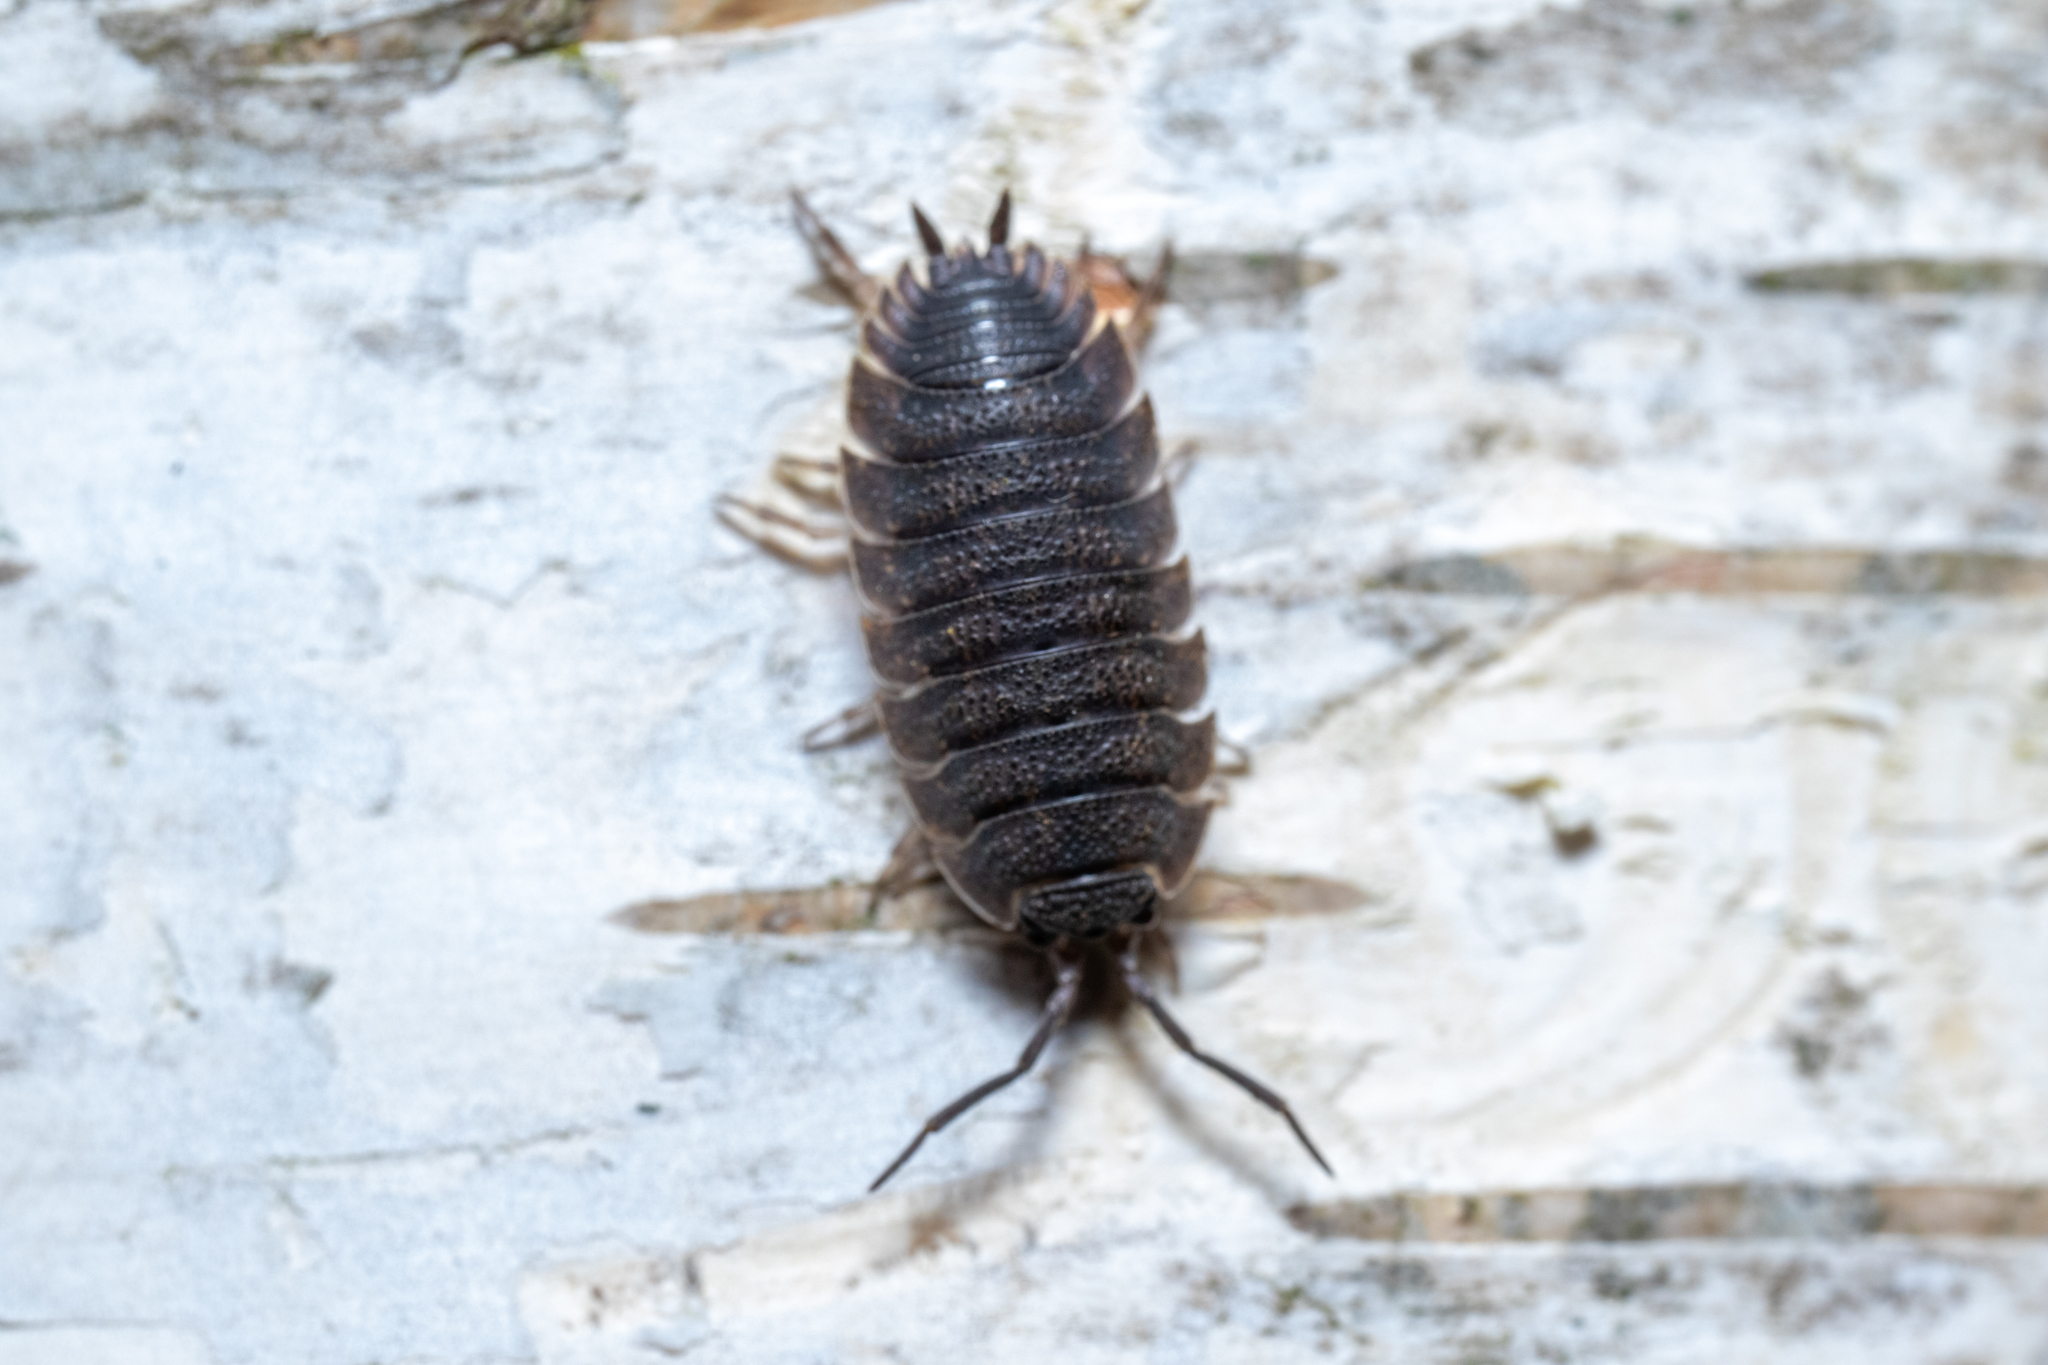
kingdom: Animalia
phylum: Arthropoda
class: Malacostraca
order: Isopoda
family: Porcellionidae
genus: Porcellio
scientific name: Porcellio scaber
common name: Common rough woodlouse
